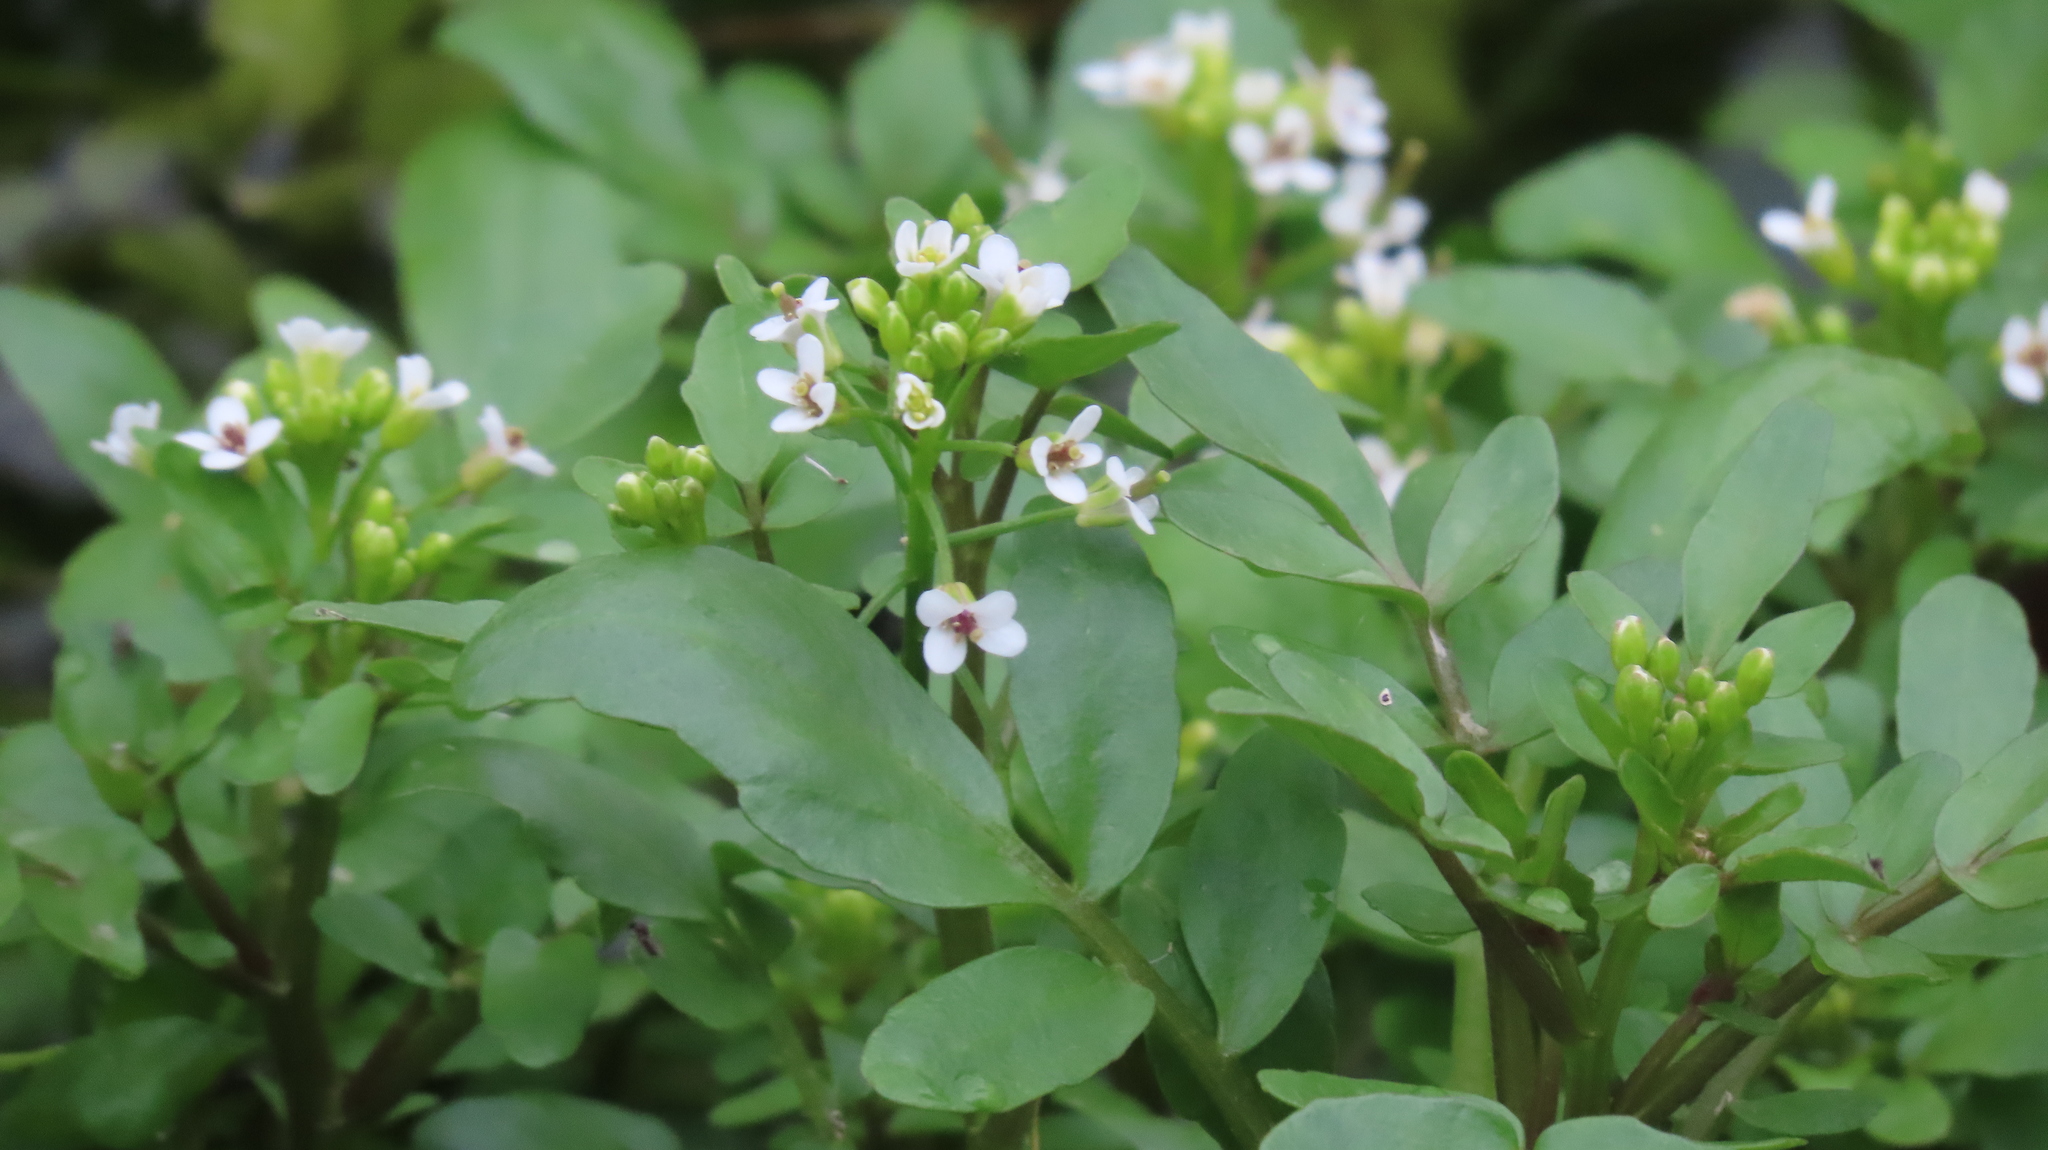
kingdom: Plantae
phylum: Tracheophyta
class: Magnoliopsida
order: Brassicales
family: Brassicaceae
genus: Nasturtium
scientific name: Nasturtium officinale
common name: Watercress
